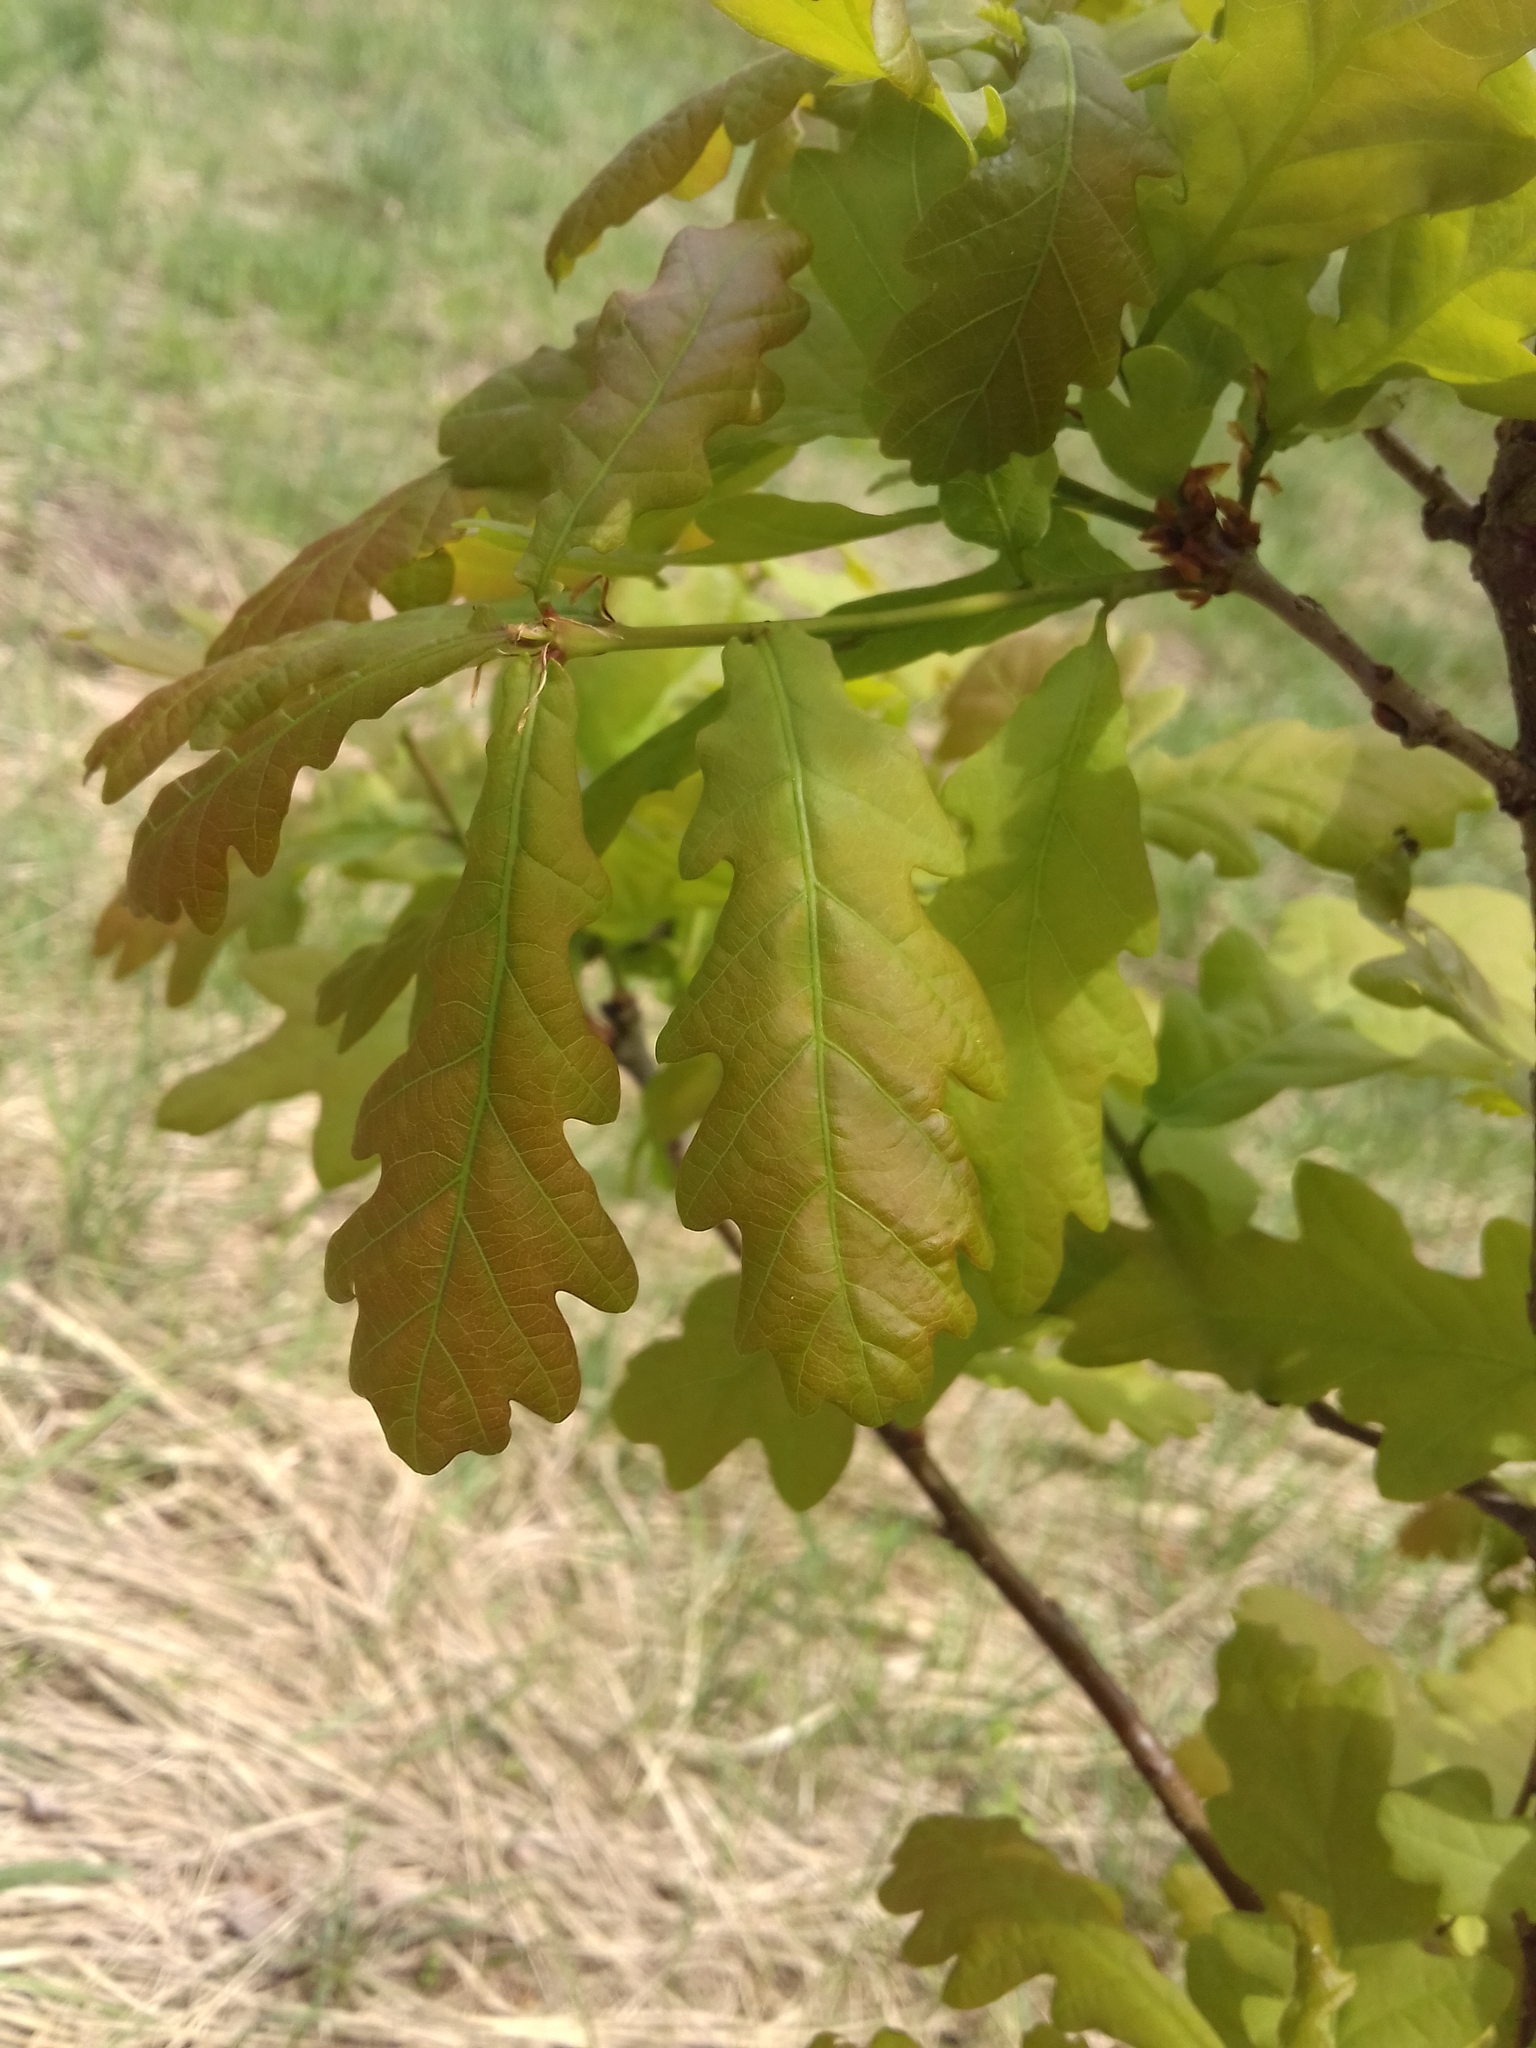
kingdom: Plantae
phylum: Tracheophyta
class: Magnoliopsida
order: Fagales
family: Fagaceae
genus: Quercus
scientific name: Quercus robur
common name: Pedunculate oak
